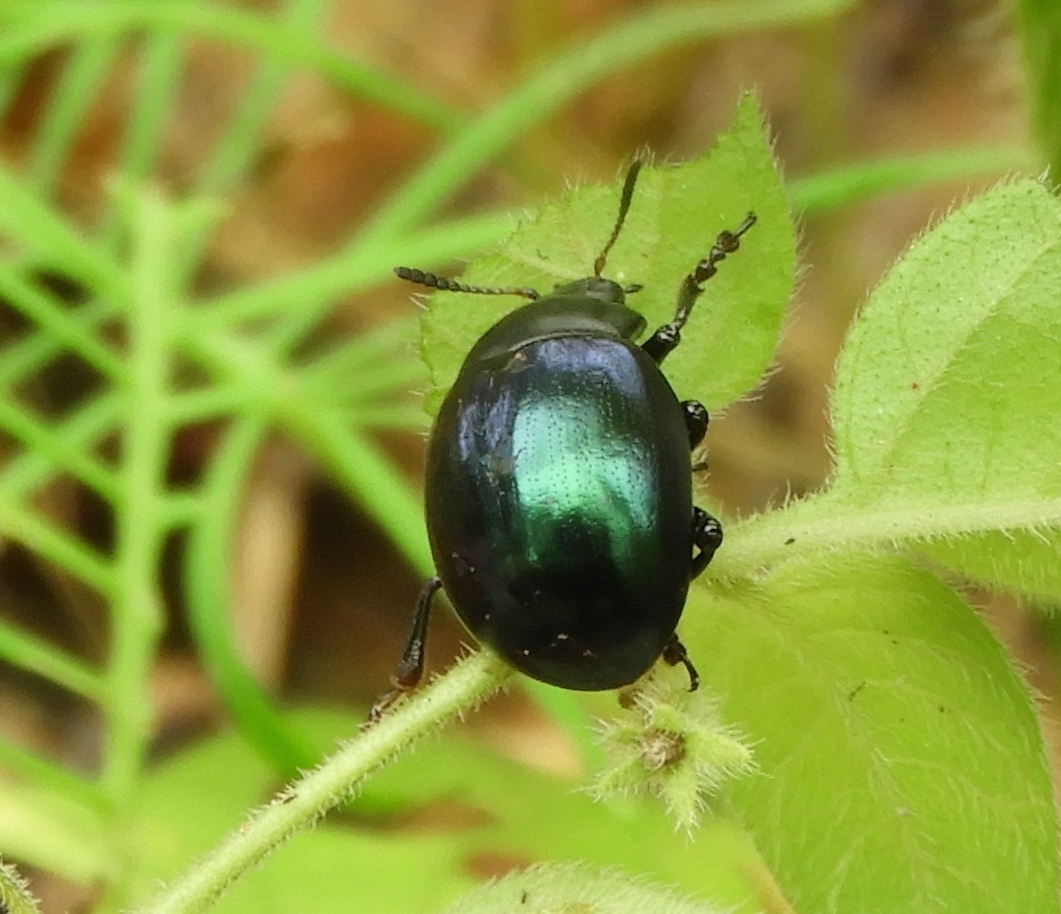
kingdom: Animalia
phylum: Arthropoda
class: Insecta
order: Coleoptera
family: Chrysomelidae
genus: Leptinotarsa
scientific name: Leptinotarsa haldemani
